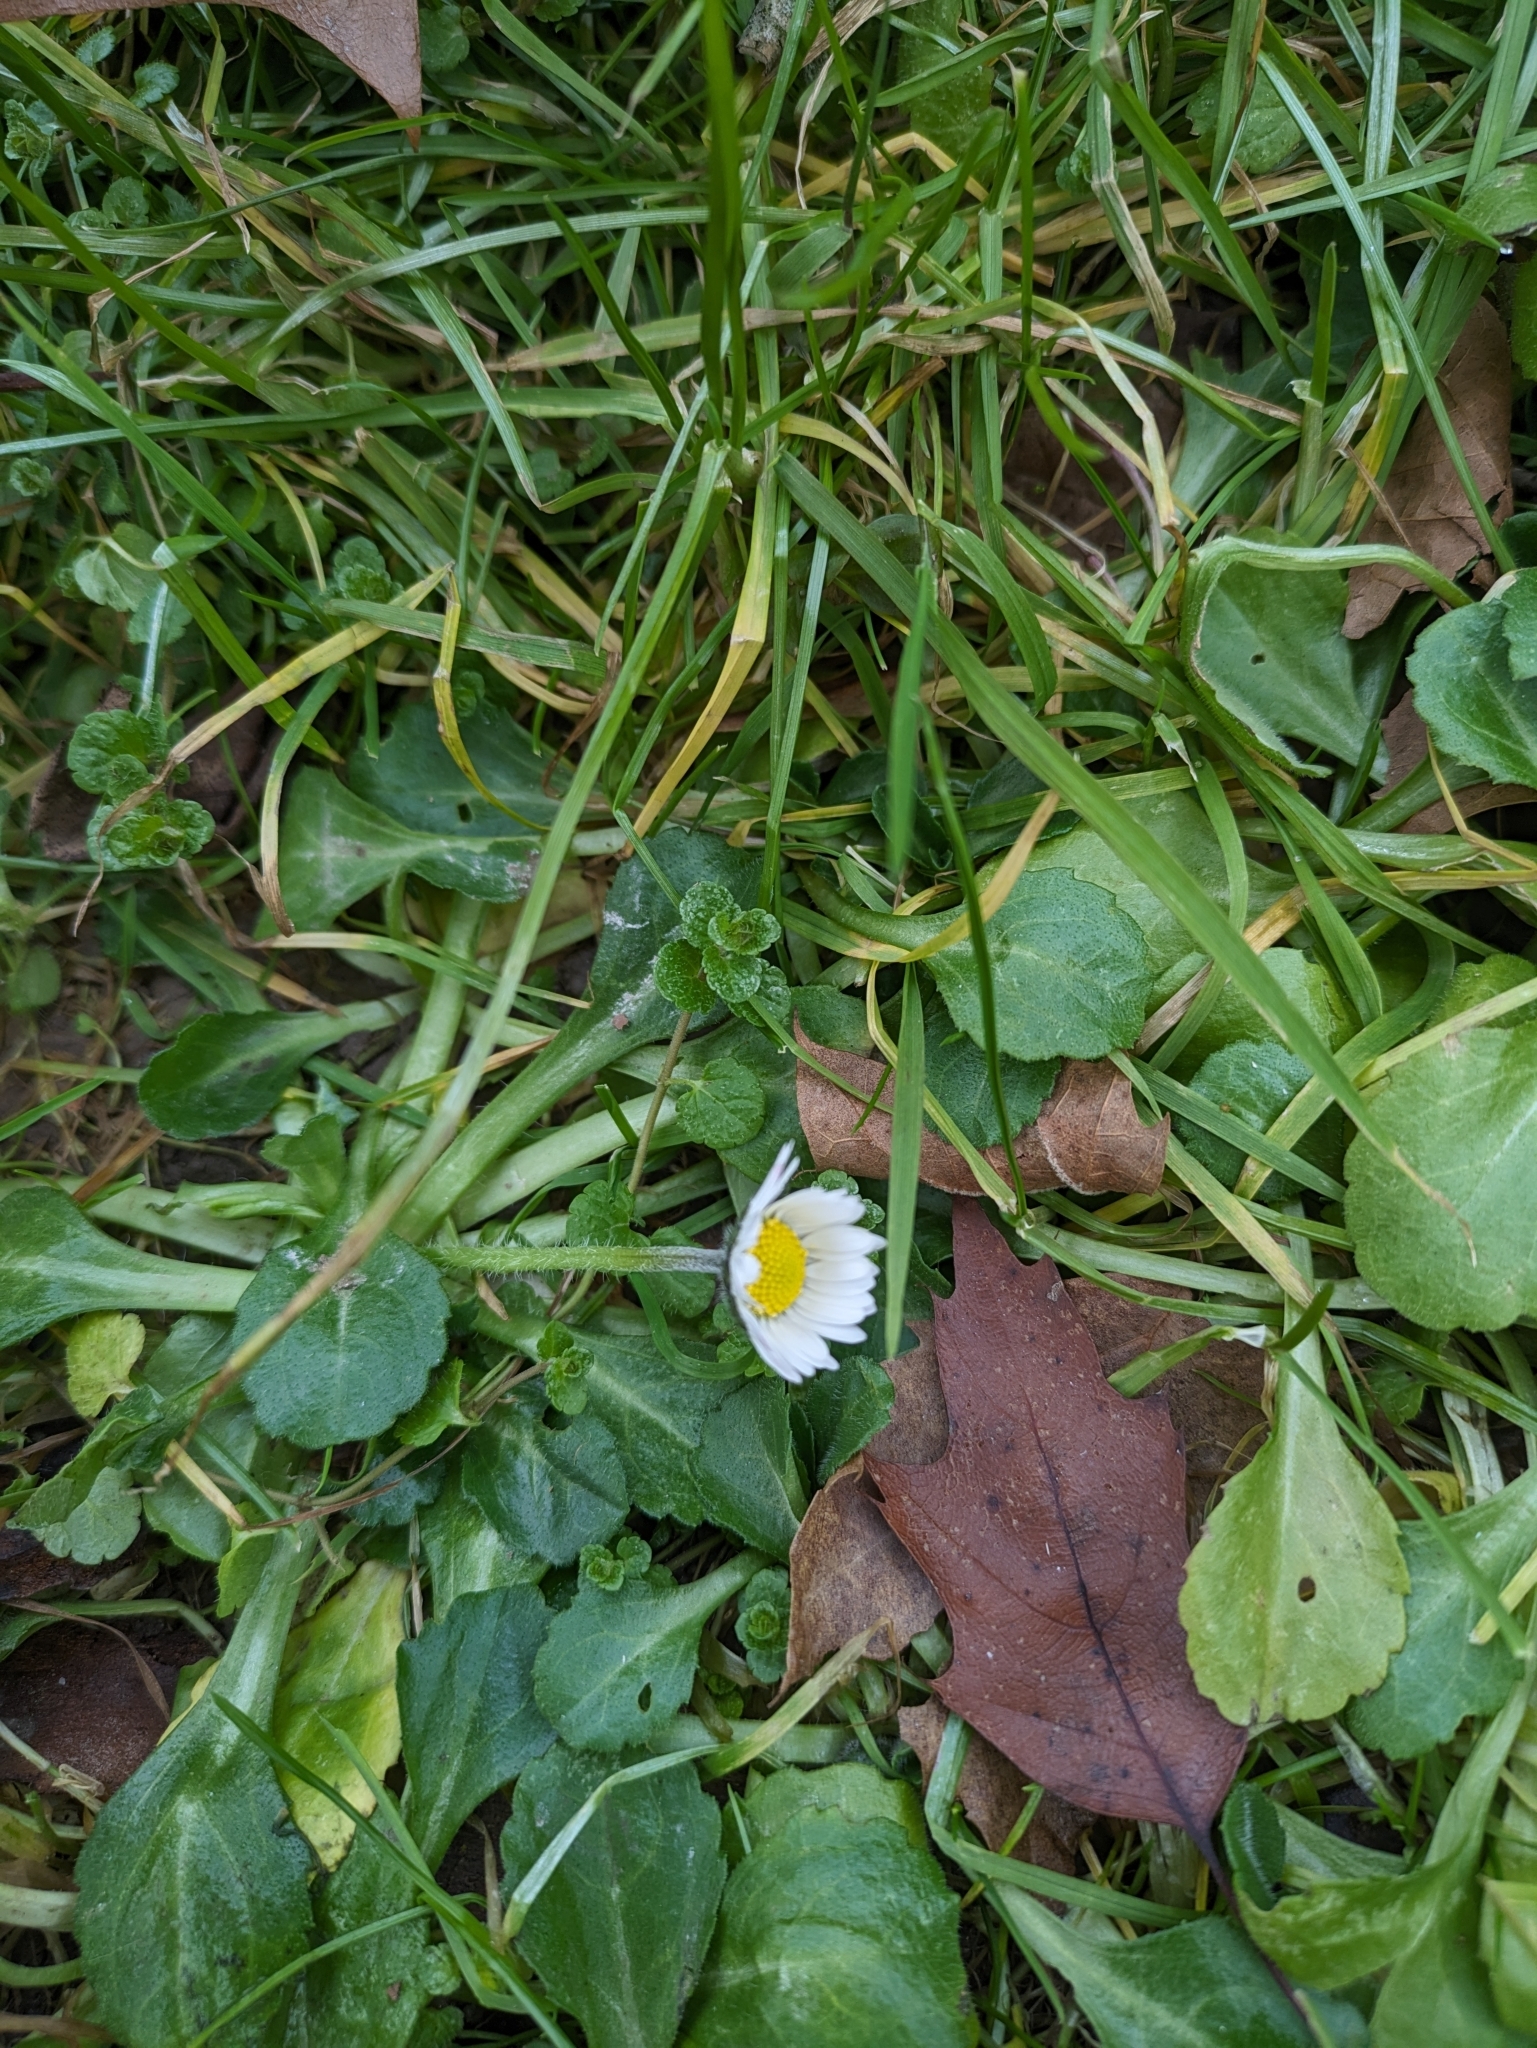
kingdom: Plantae
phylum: Tracheophyta
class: Magnoliopsida
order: Asterales
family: Asteraceae
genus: Bellis
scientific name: Bellis perennis
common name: Lawndaisy
